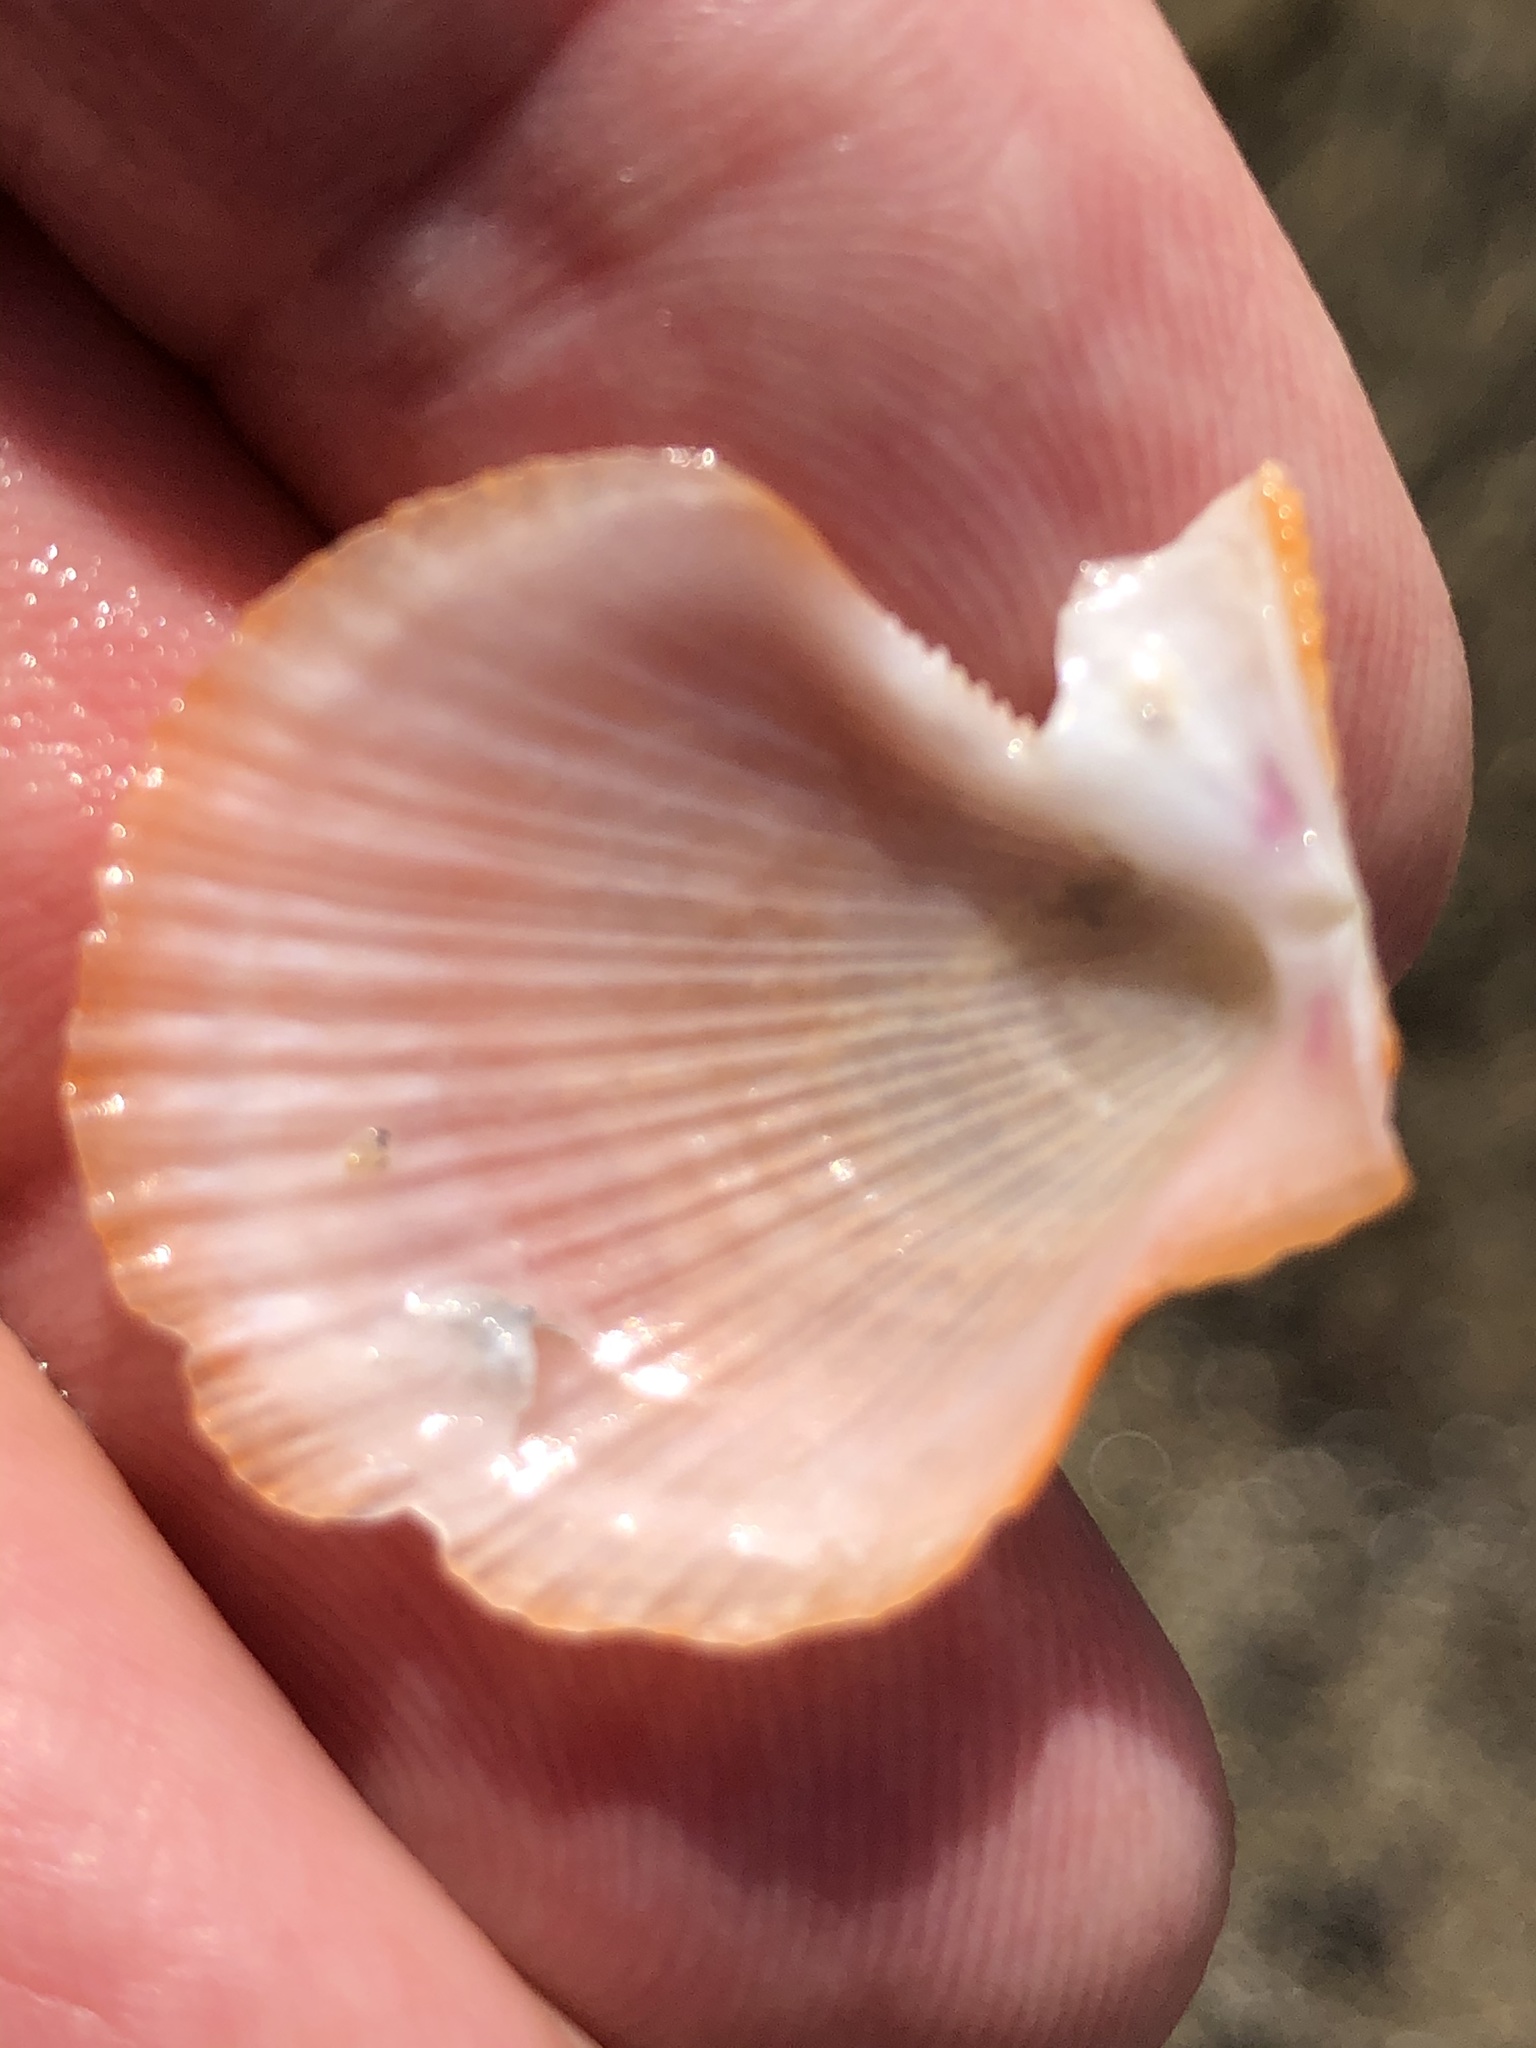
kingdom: Animalia
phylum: Mollusca
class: Bivalvia
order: Pectinida
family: Pectinidae
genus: Crassadoma
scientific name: Crassadoma gigantea
